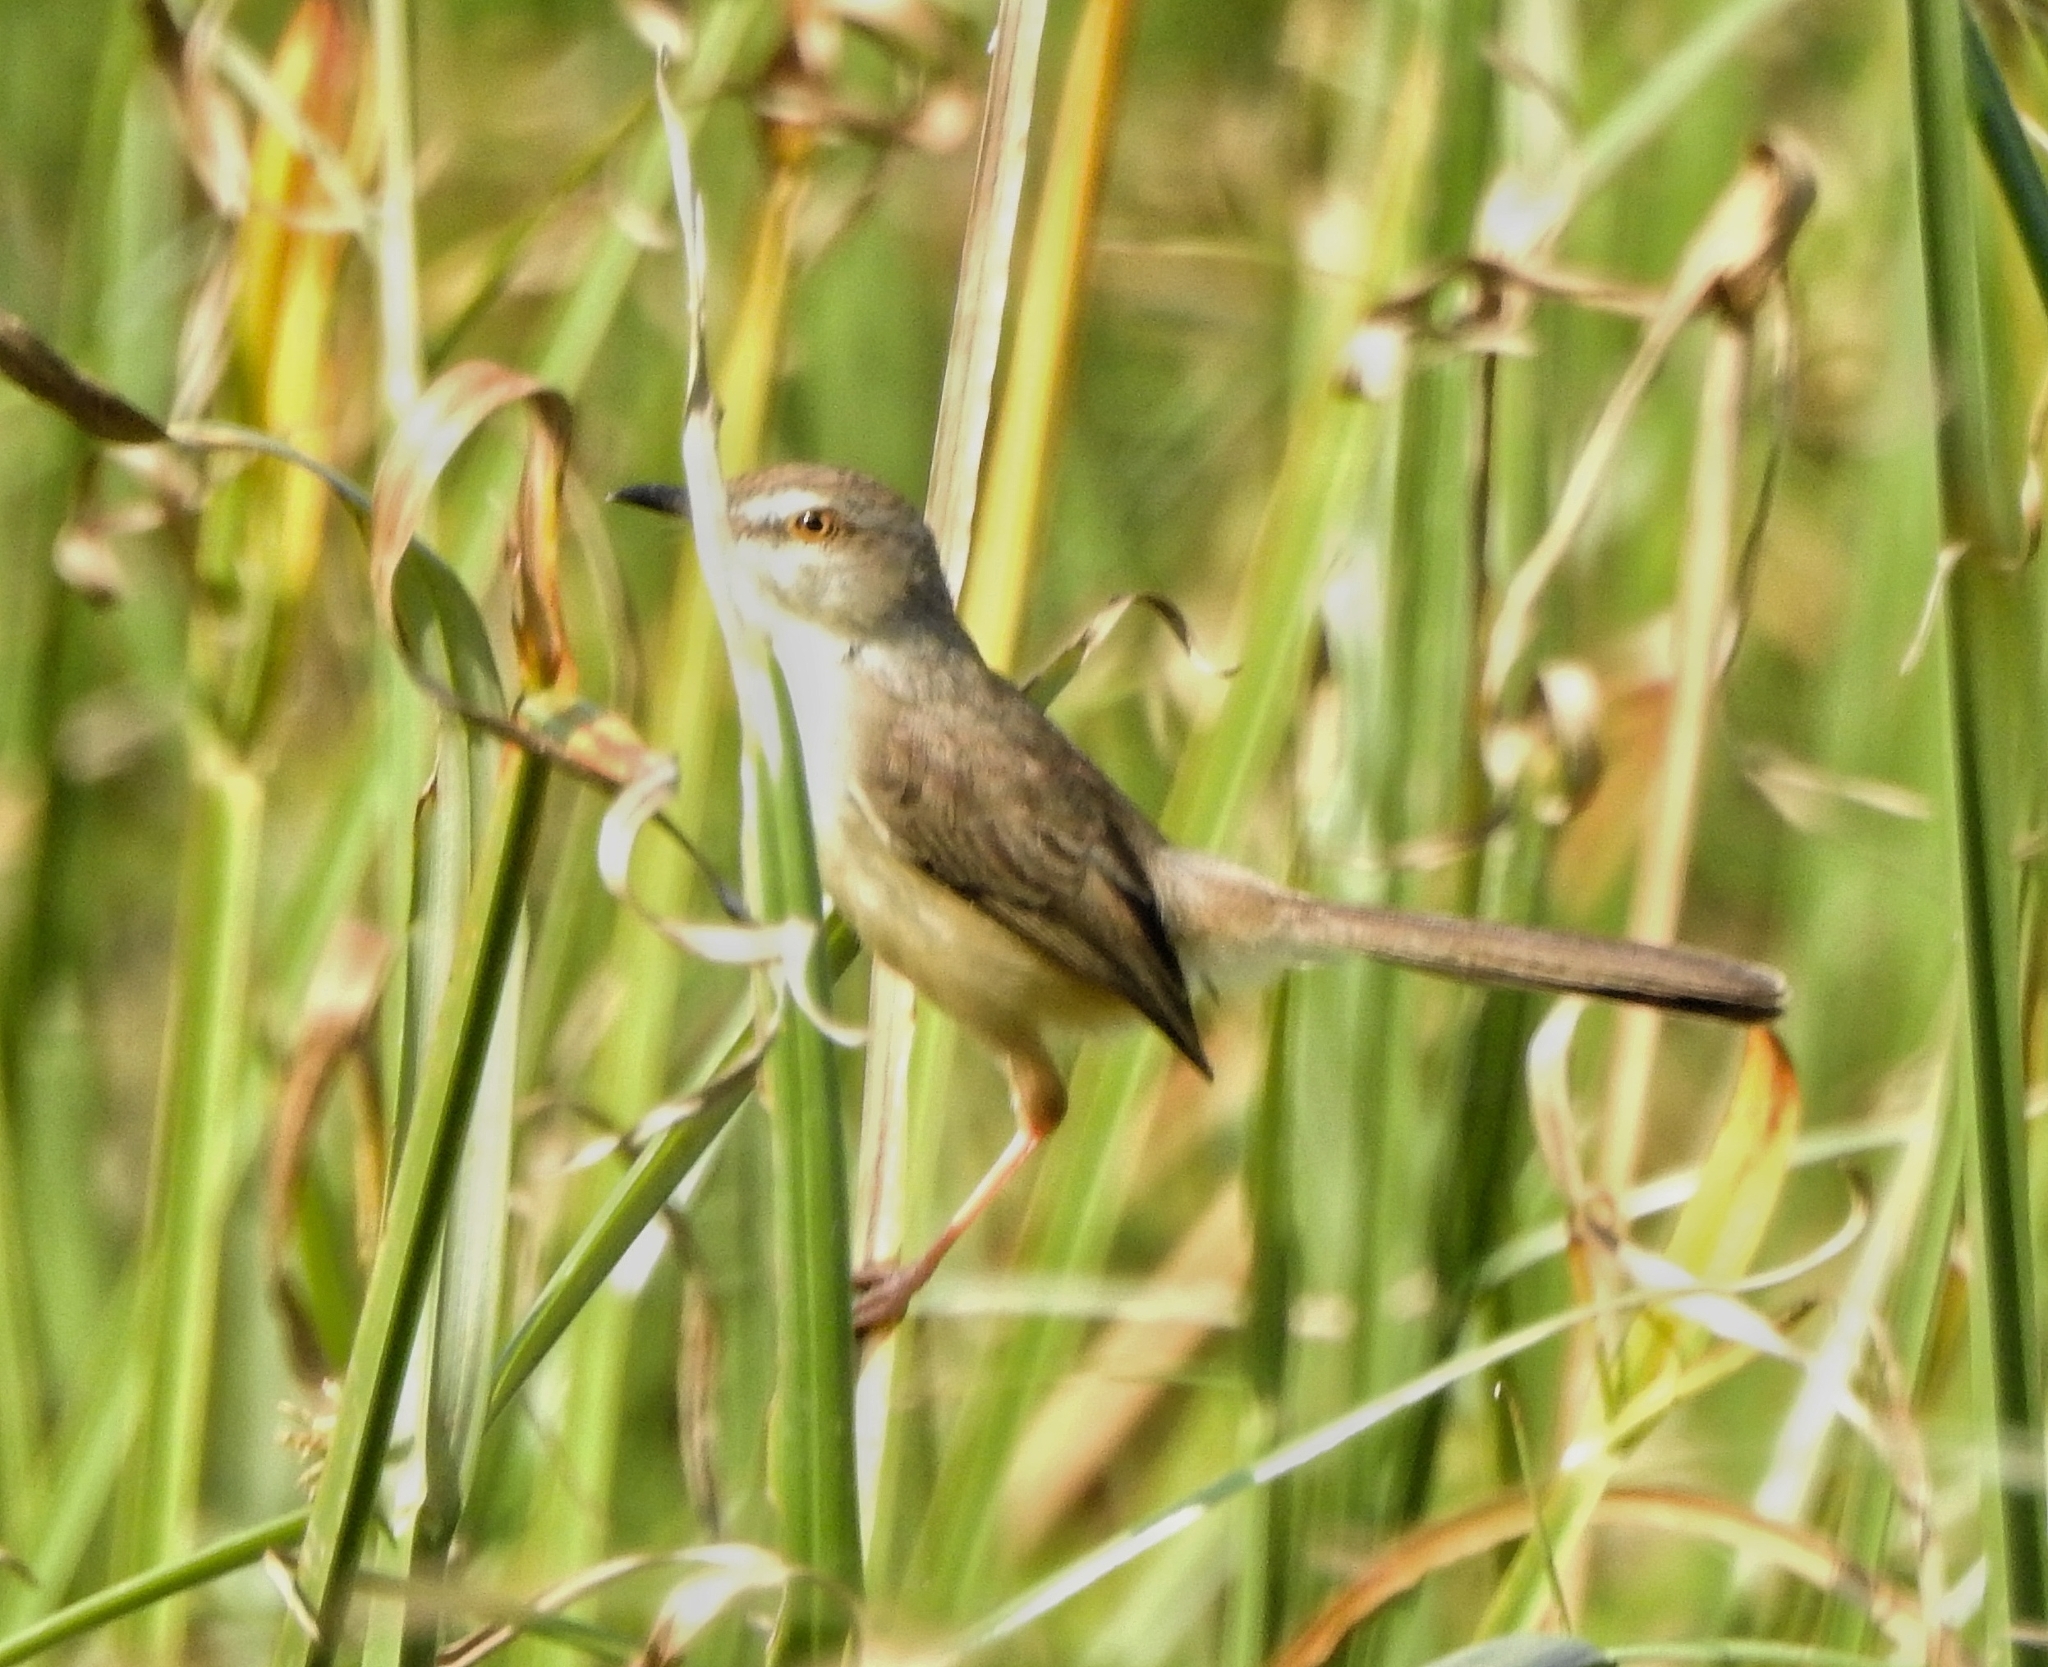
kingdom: Animalia
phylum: Chordata
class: Aves
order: Passeriformes
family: Cisticolidae
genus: Prinia
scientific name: Prinia inornata
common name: Plain prinia
